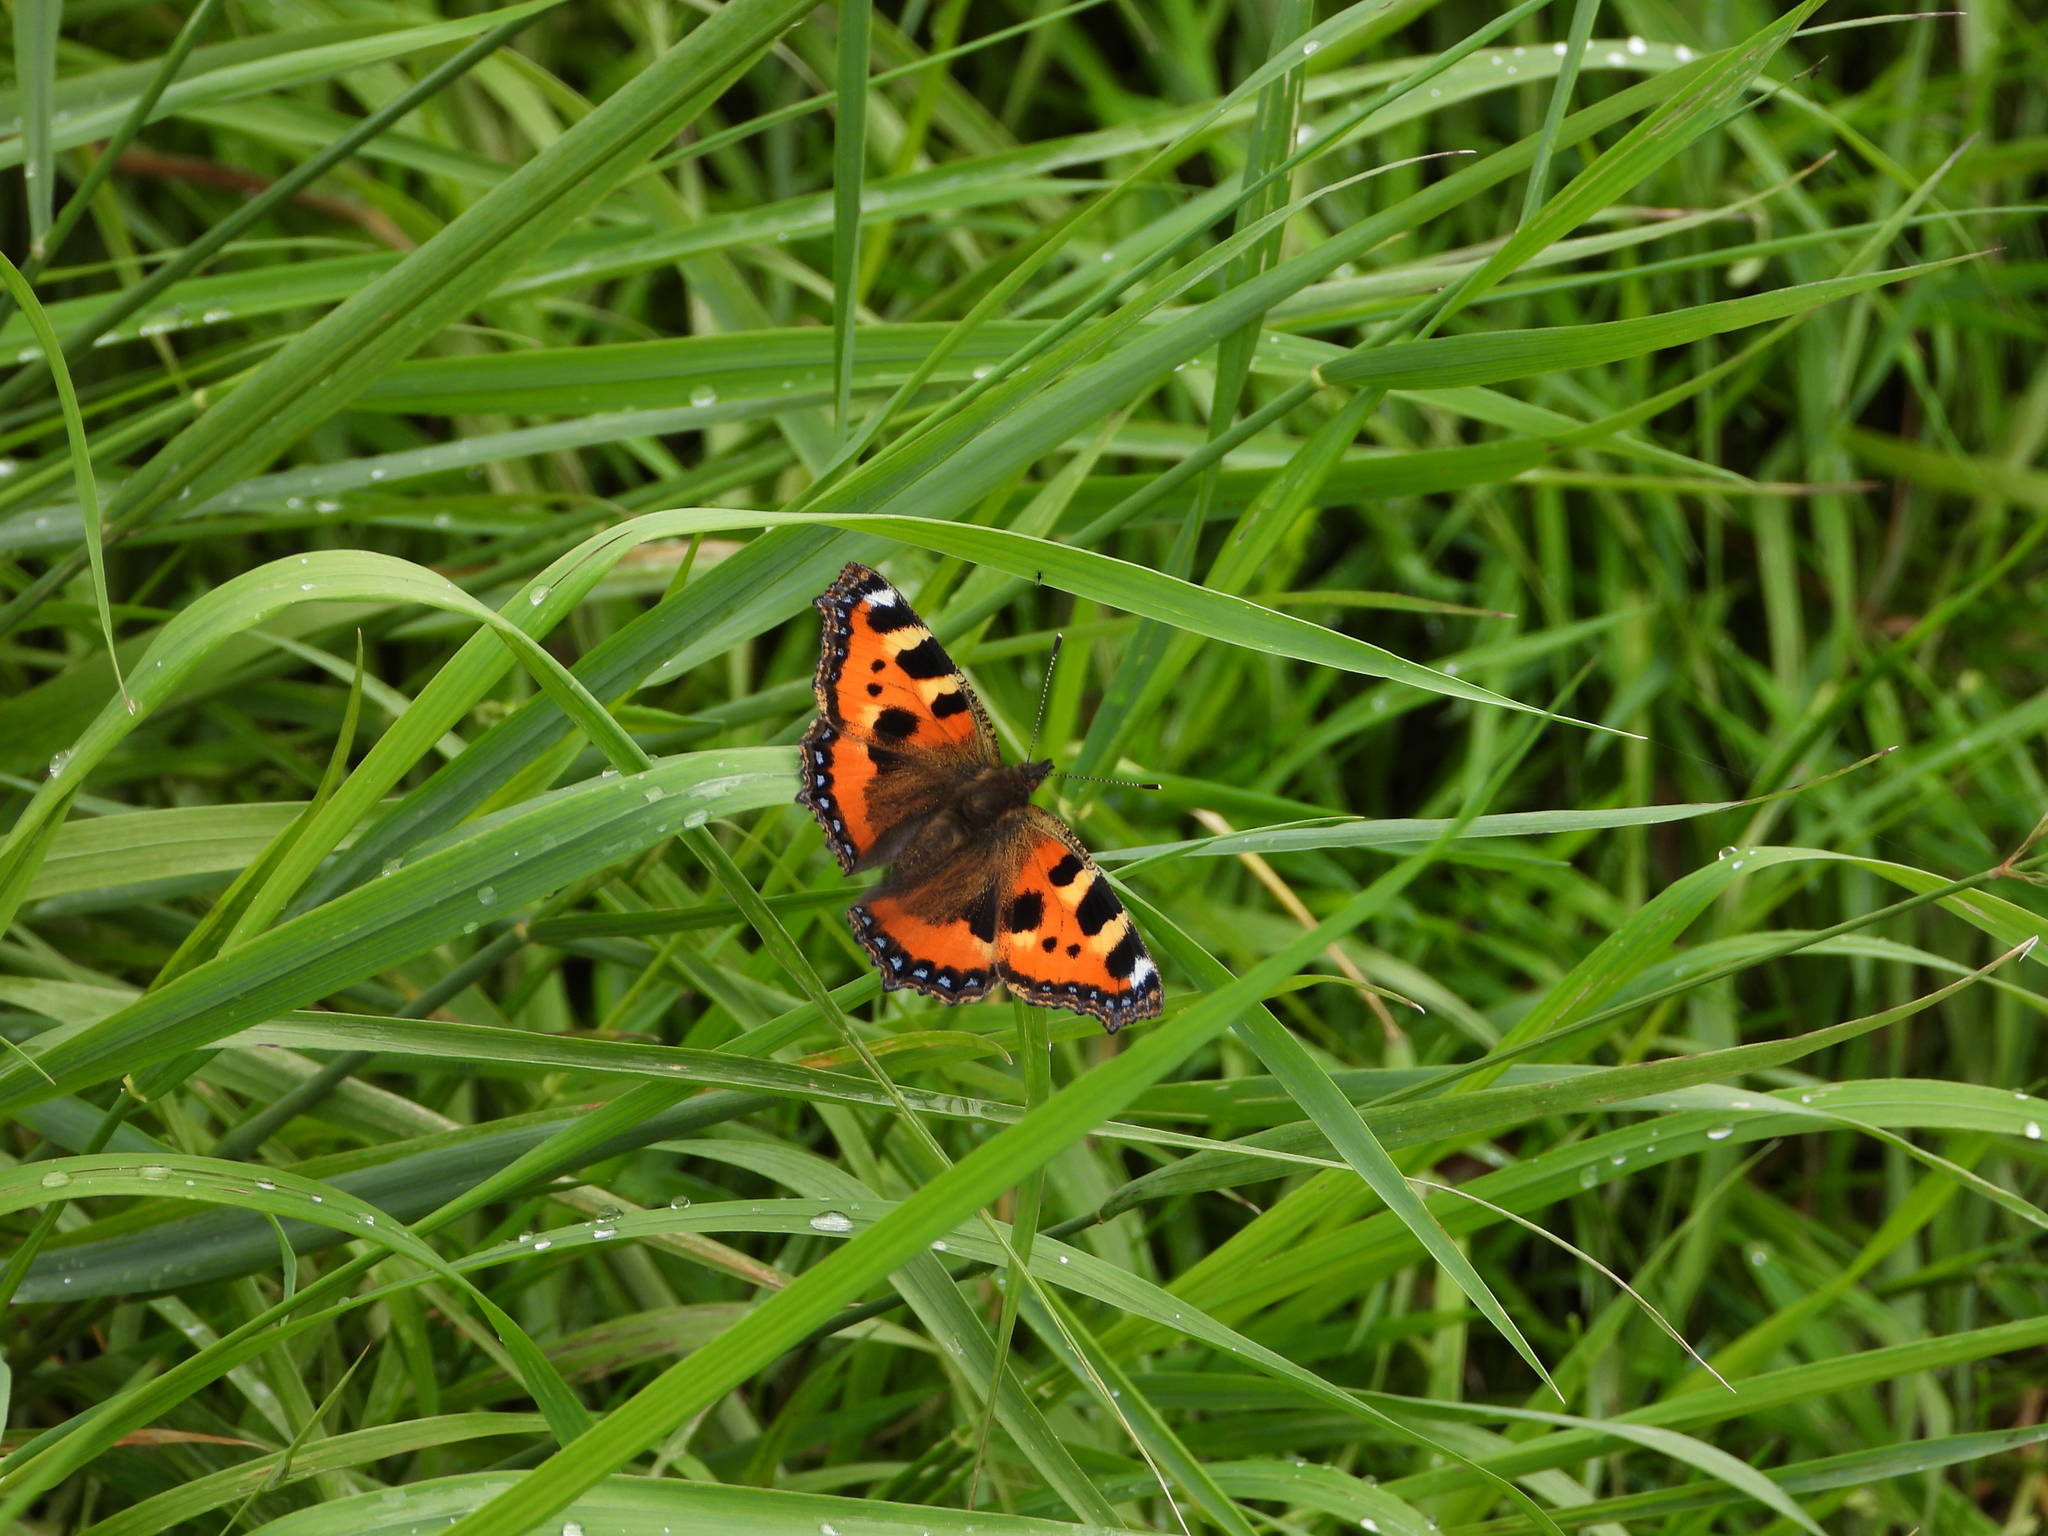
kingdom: Animalia
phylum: Arthropoda
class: Insecta
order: Lepidoptera
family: Nymphalidae
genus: Aglais
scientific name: Aglais urticae
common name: Small tortoiseshell
